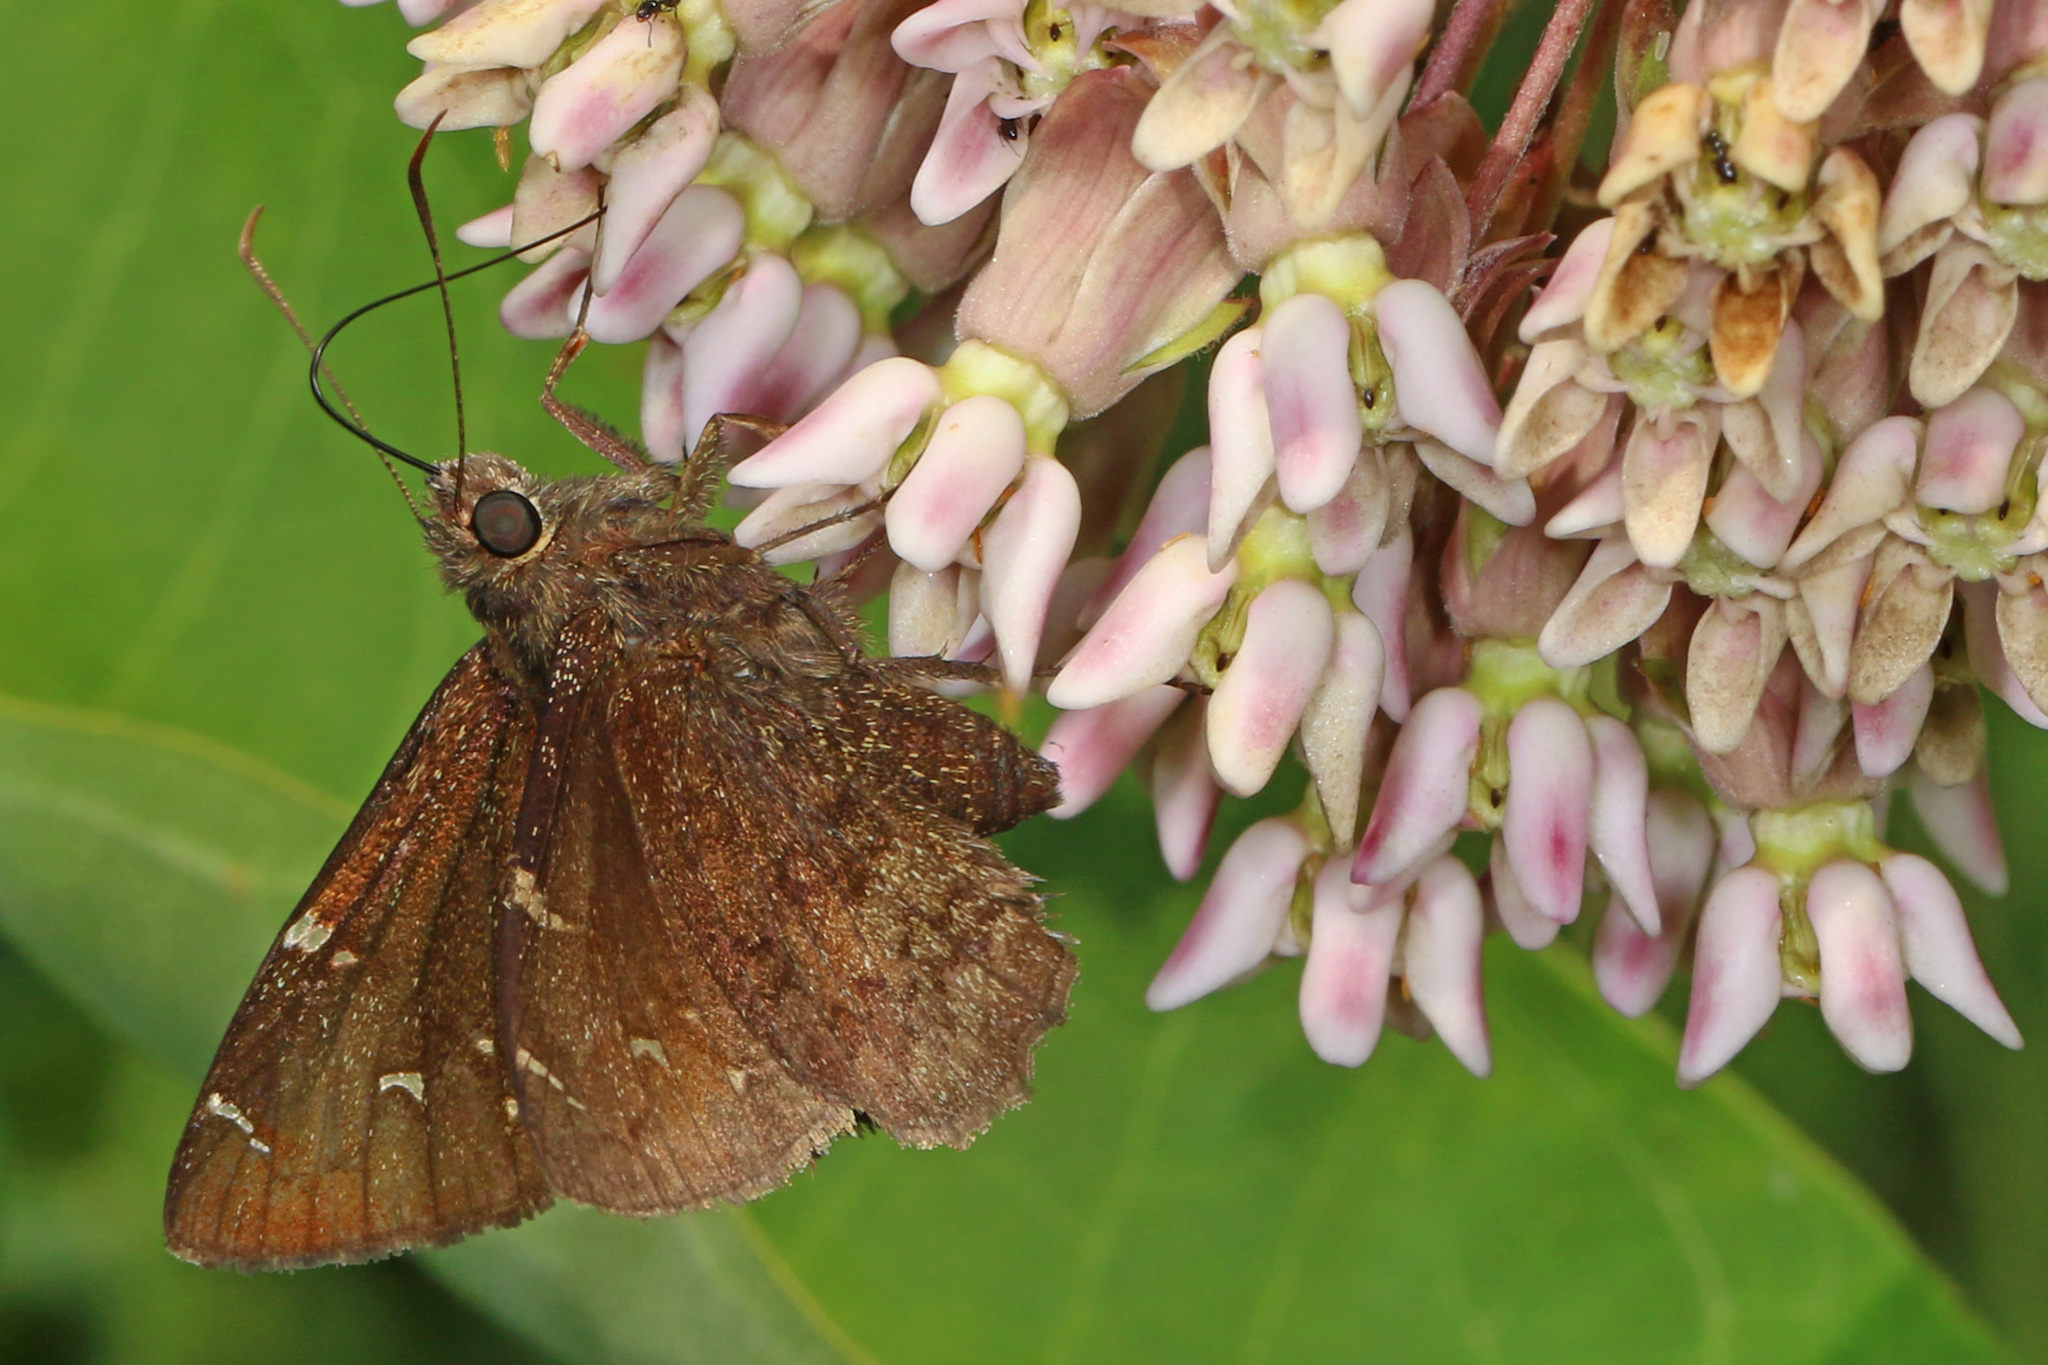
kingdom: Animalia
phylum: Arthropoda
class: Insecta
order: Lepidoptera
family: Hesperiidae
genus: Thorybes
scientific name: Thorybes pylades
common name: Northern cloudywing
